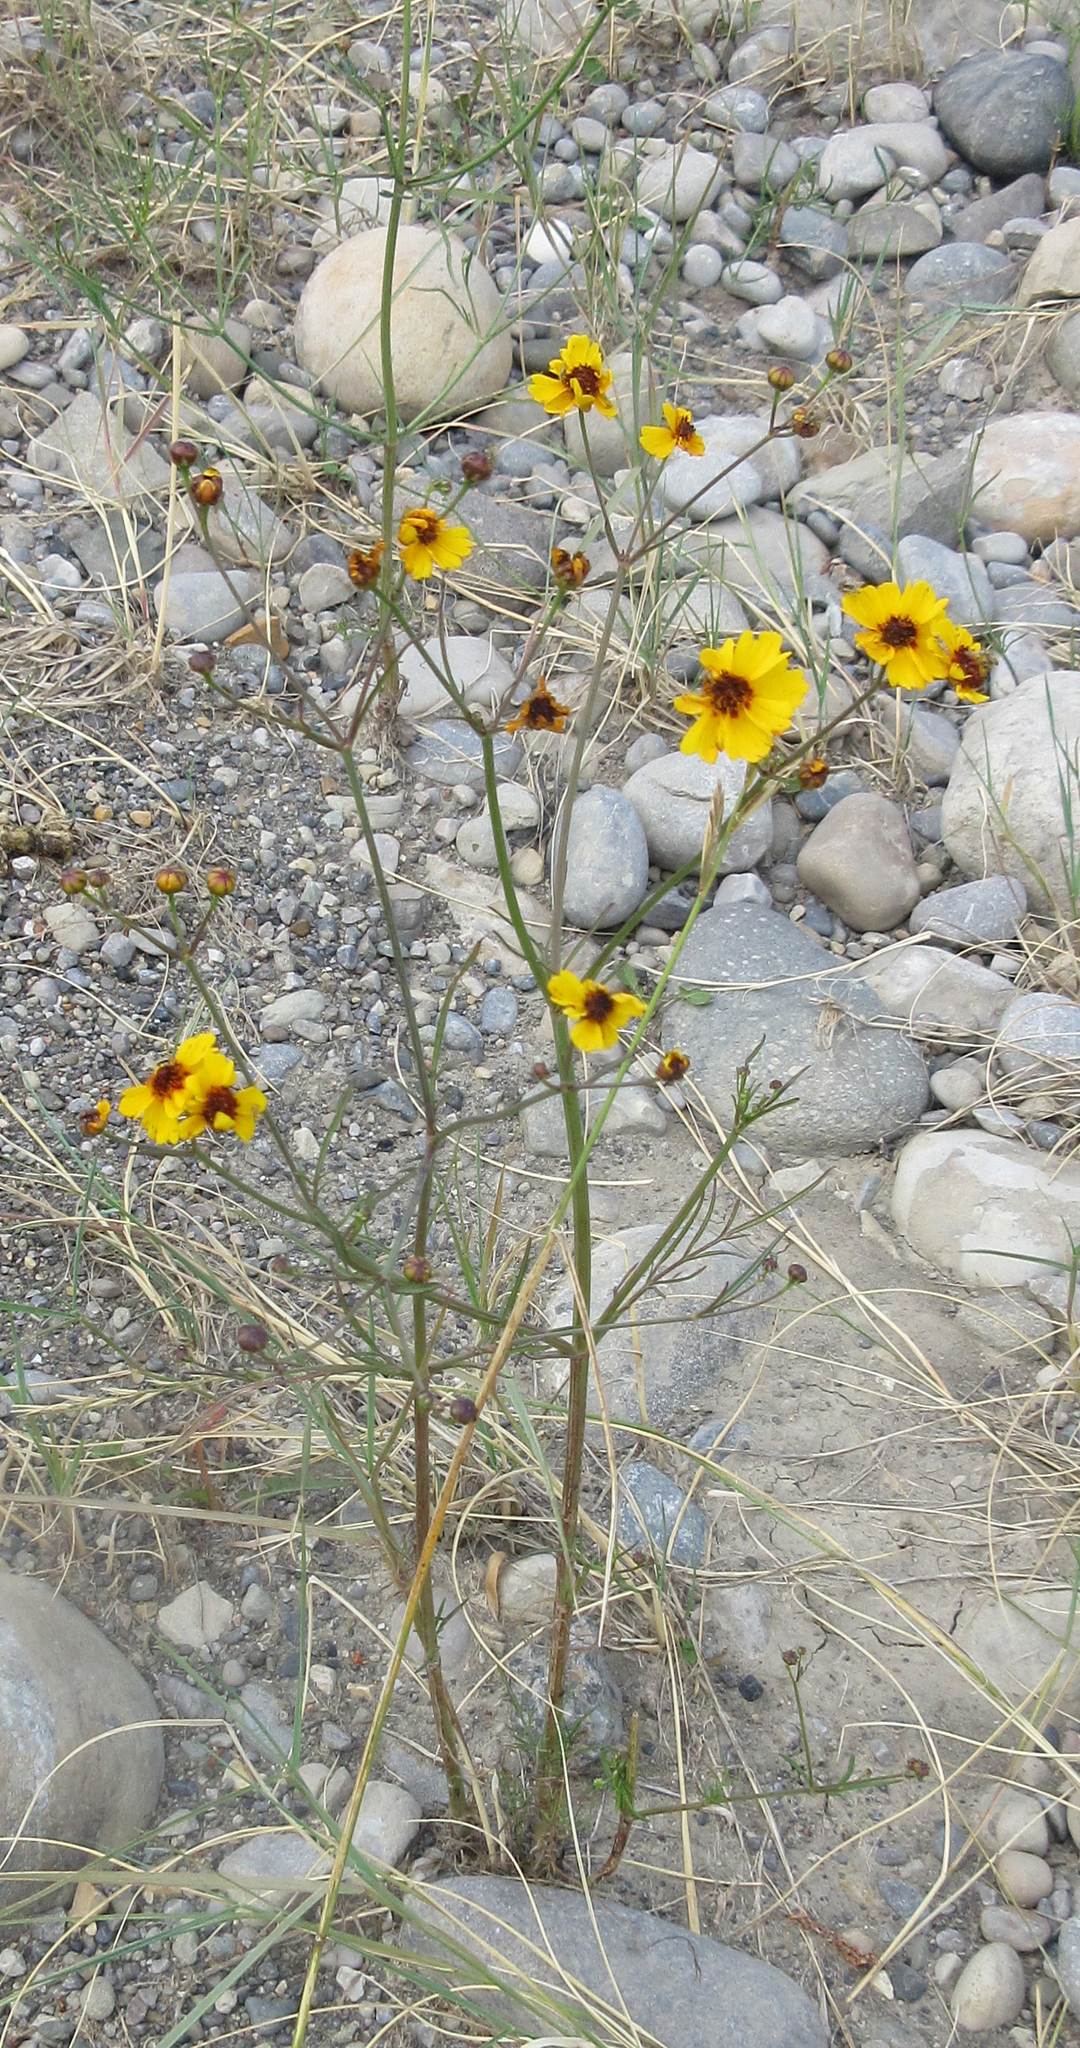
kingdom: Plantae
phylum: Tracheophyta
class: Magnoliopsida
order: Asterales
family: Asteraceae
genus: Coreopsis
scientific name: Coreopsis tinctoria
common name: Garden tickseed
